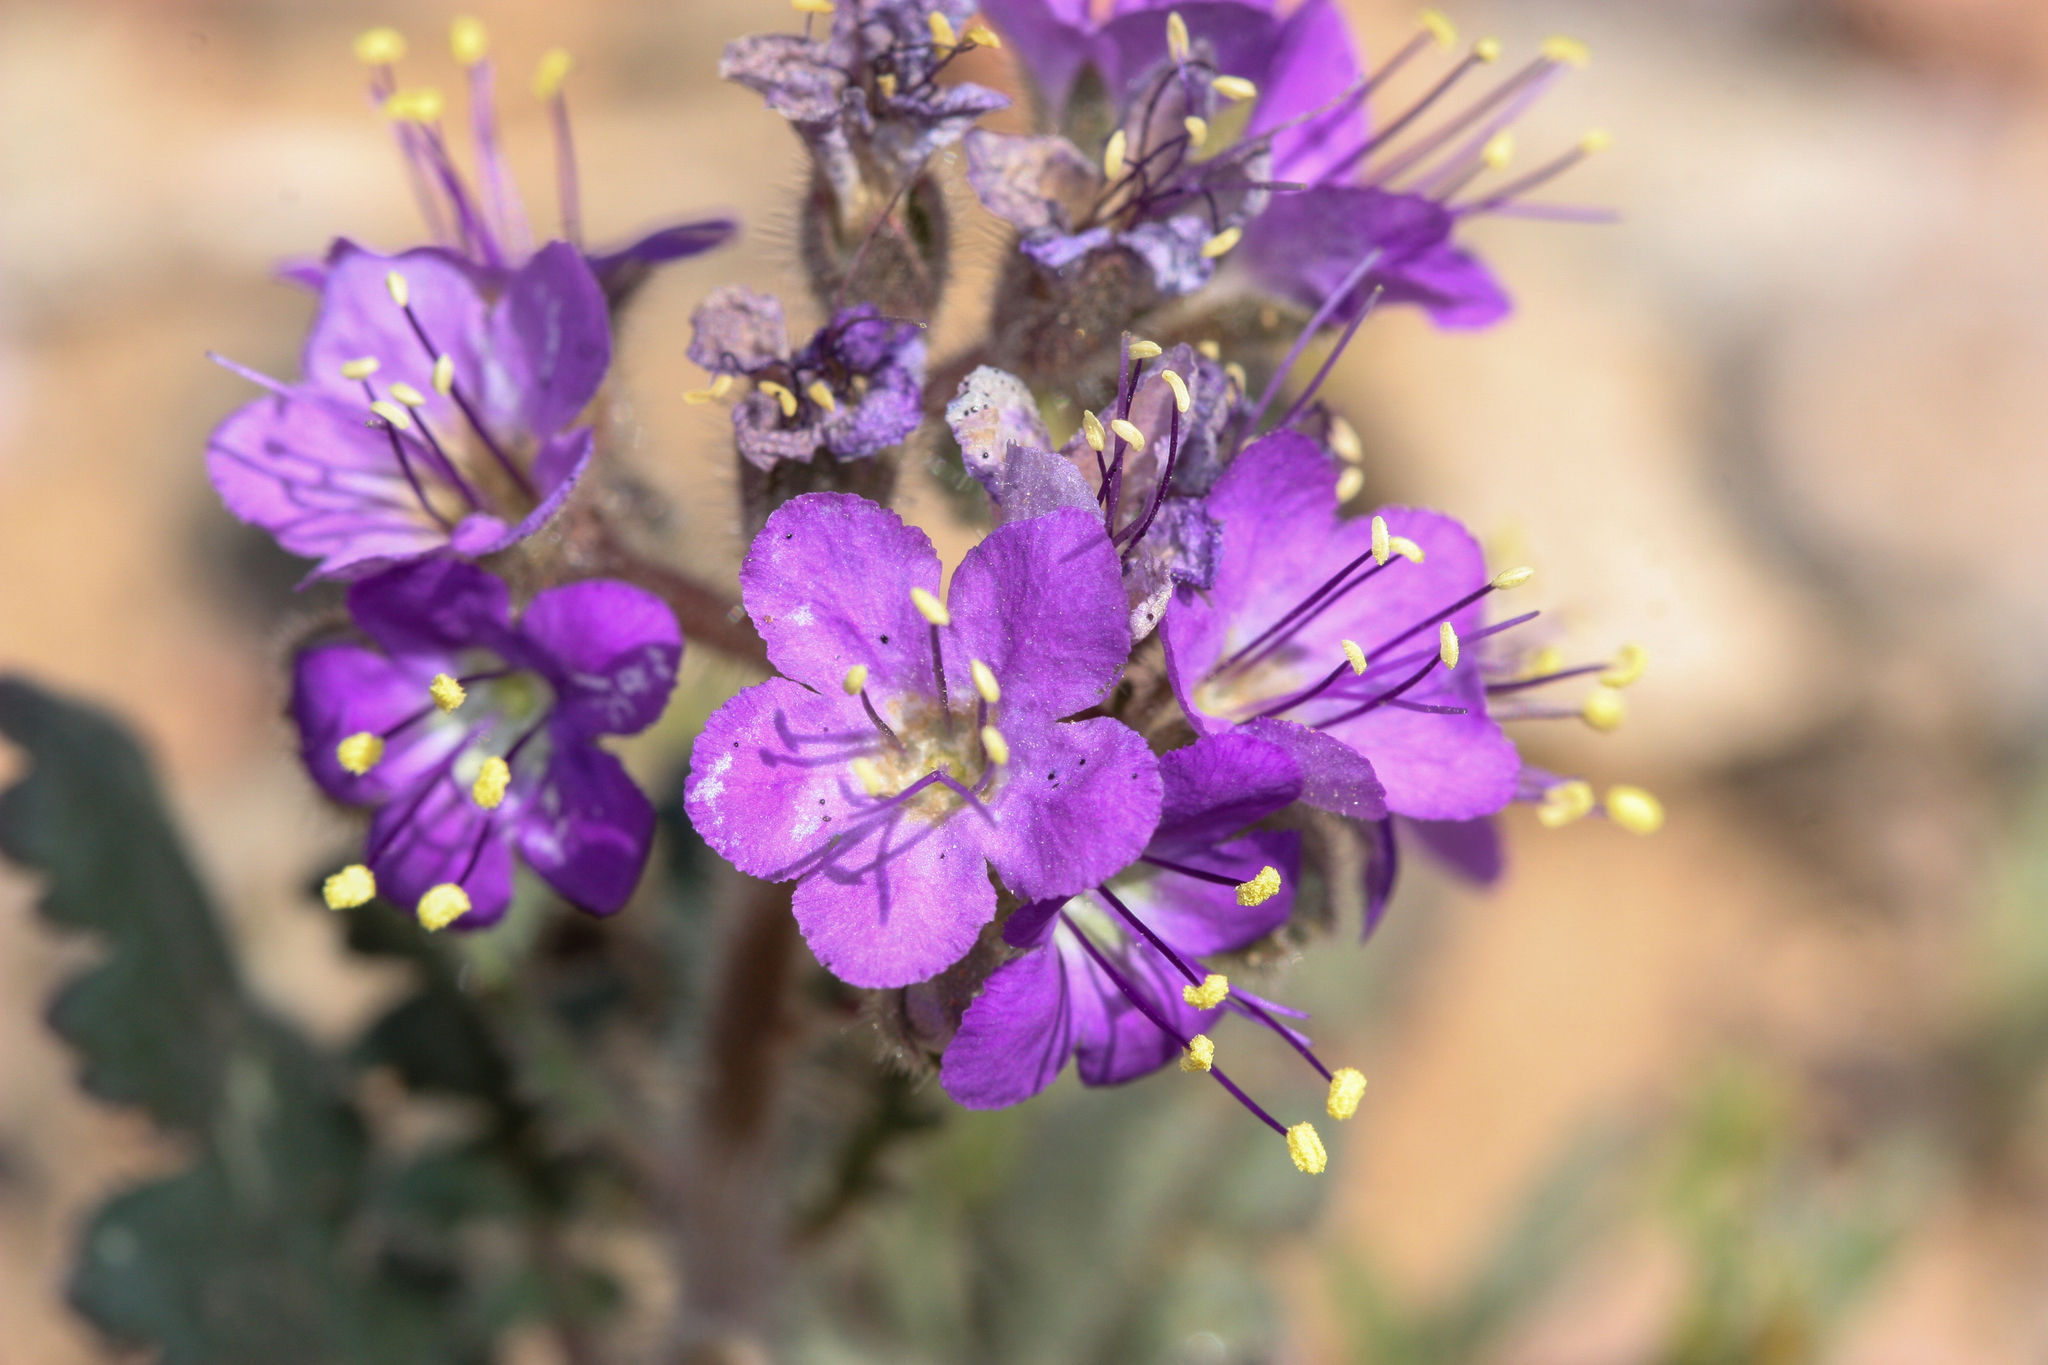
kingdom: Plantae
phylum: Tracheophyta
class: Magnoliopsida
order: Boraginales
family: Hydrophyllaceae
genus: Phacelia
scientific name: Phacelia crenulata
